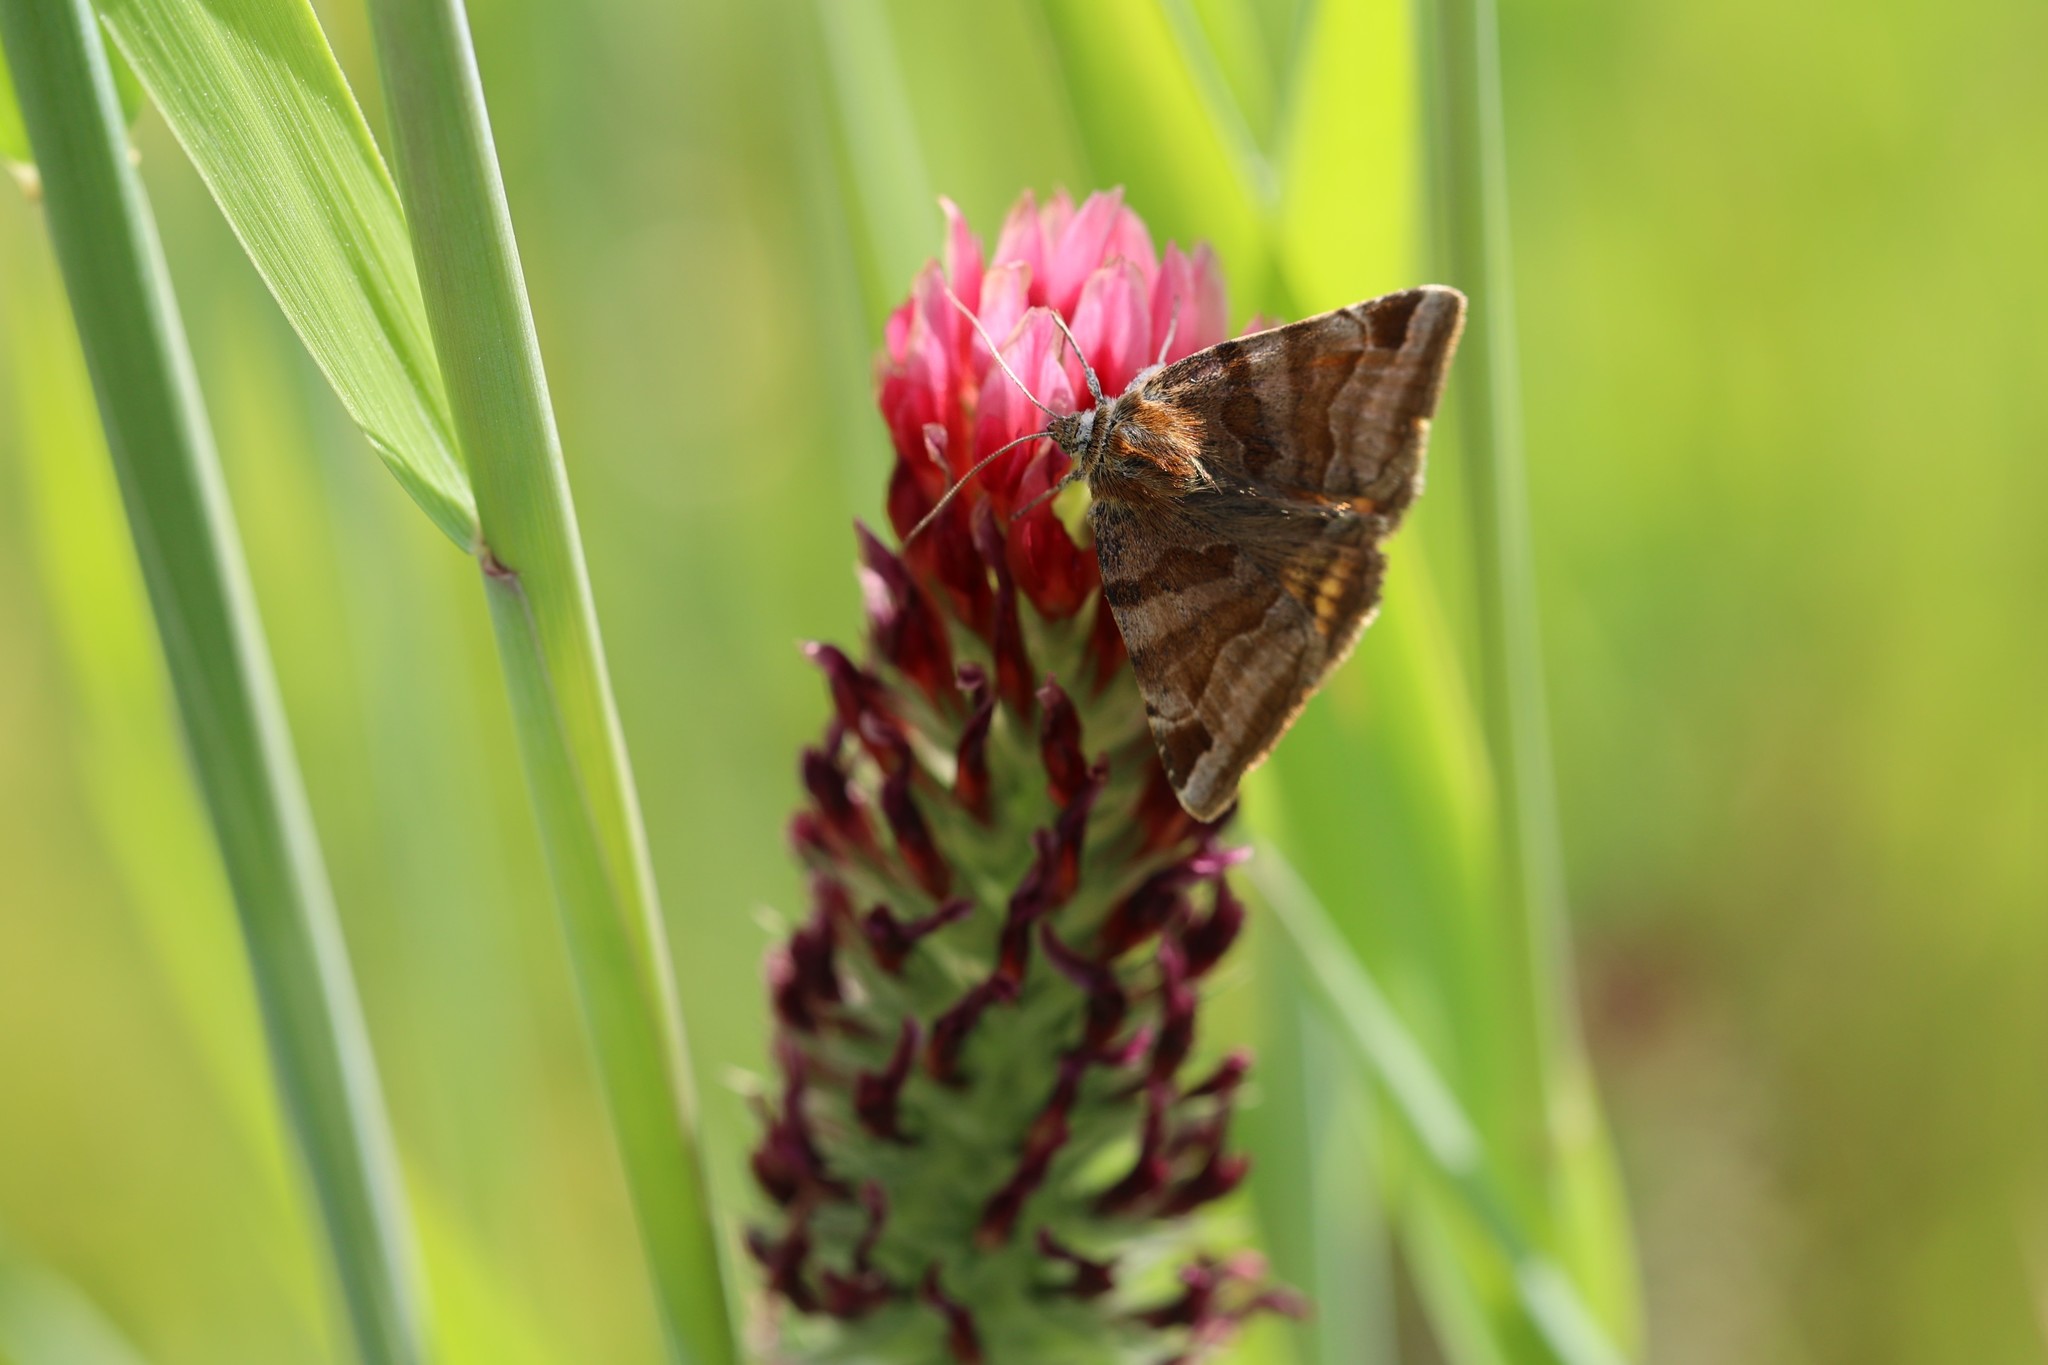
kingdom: Animalia
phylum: Arthropoda
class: Insecta
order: Lepidoptera
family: Erebidae
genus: Euclidia
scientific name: Euclidia glyphica
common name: Burnet companion
